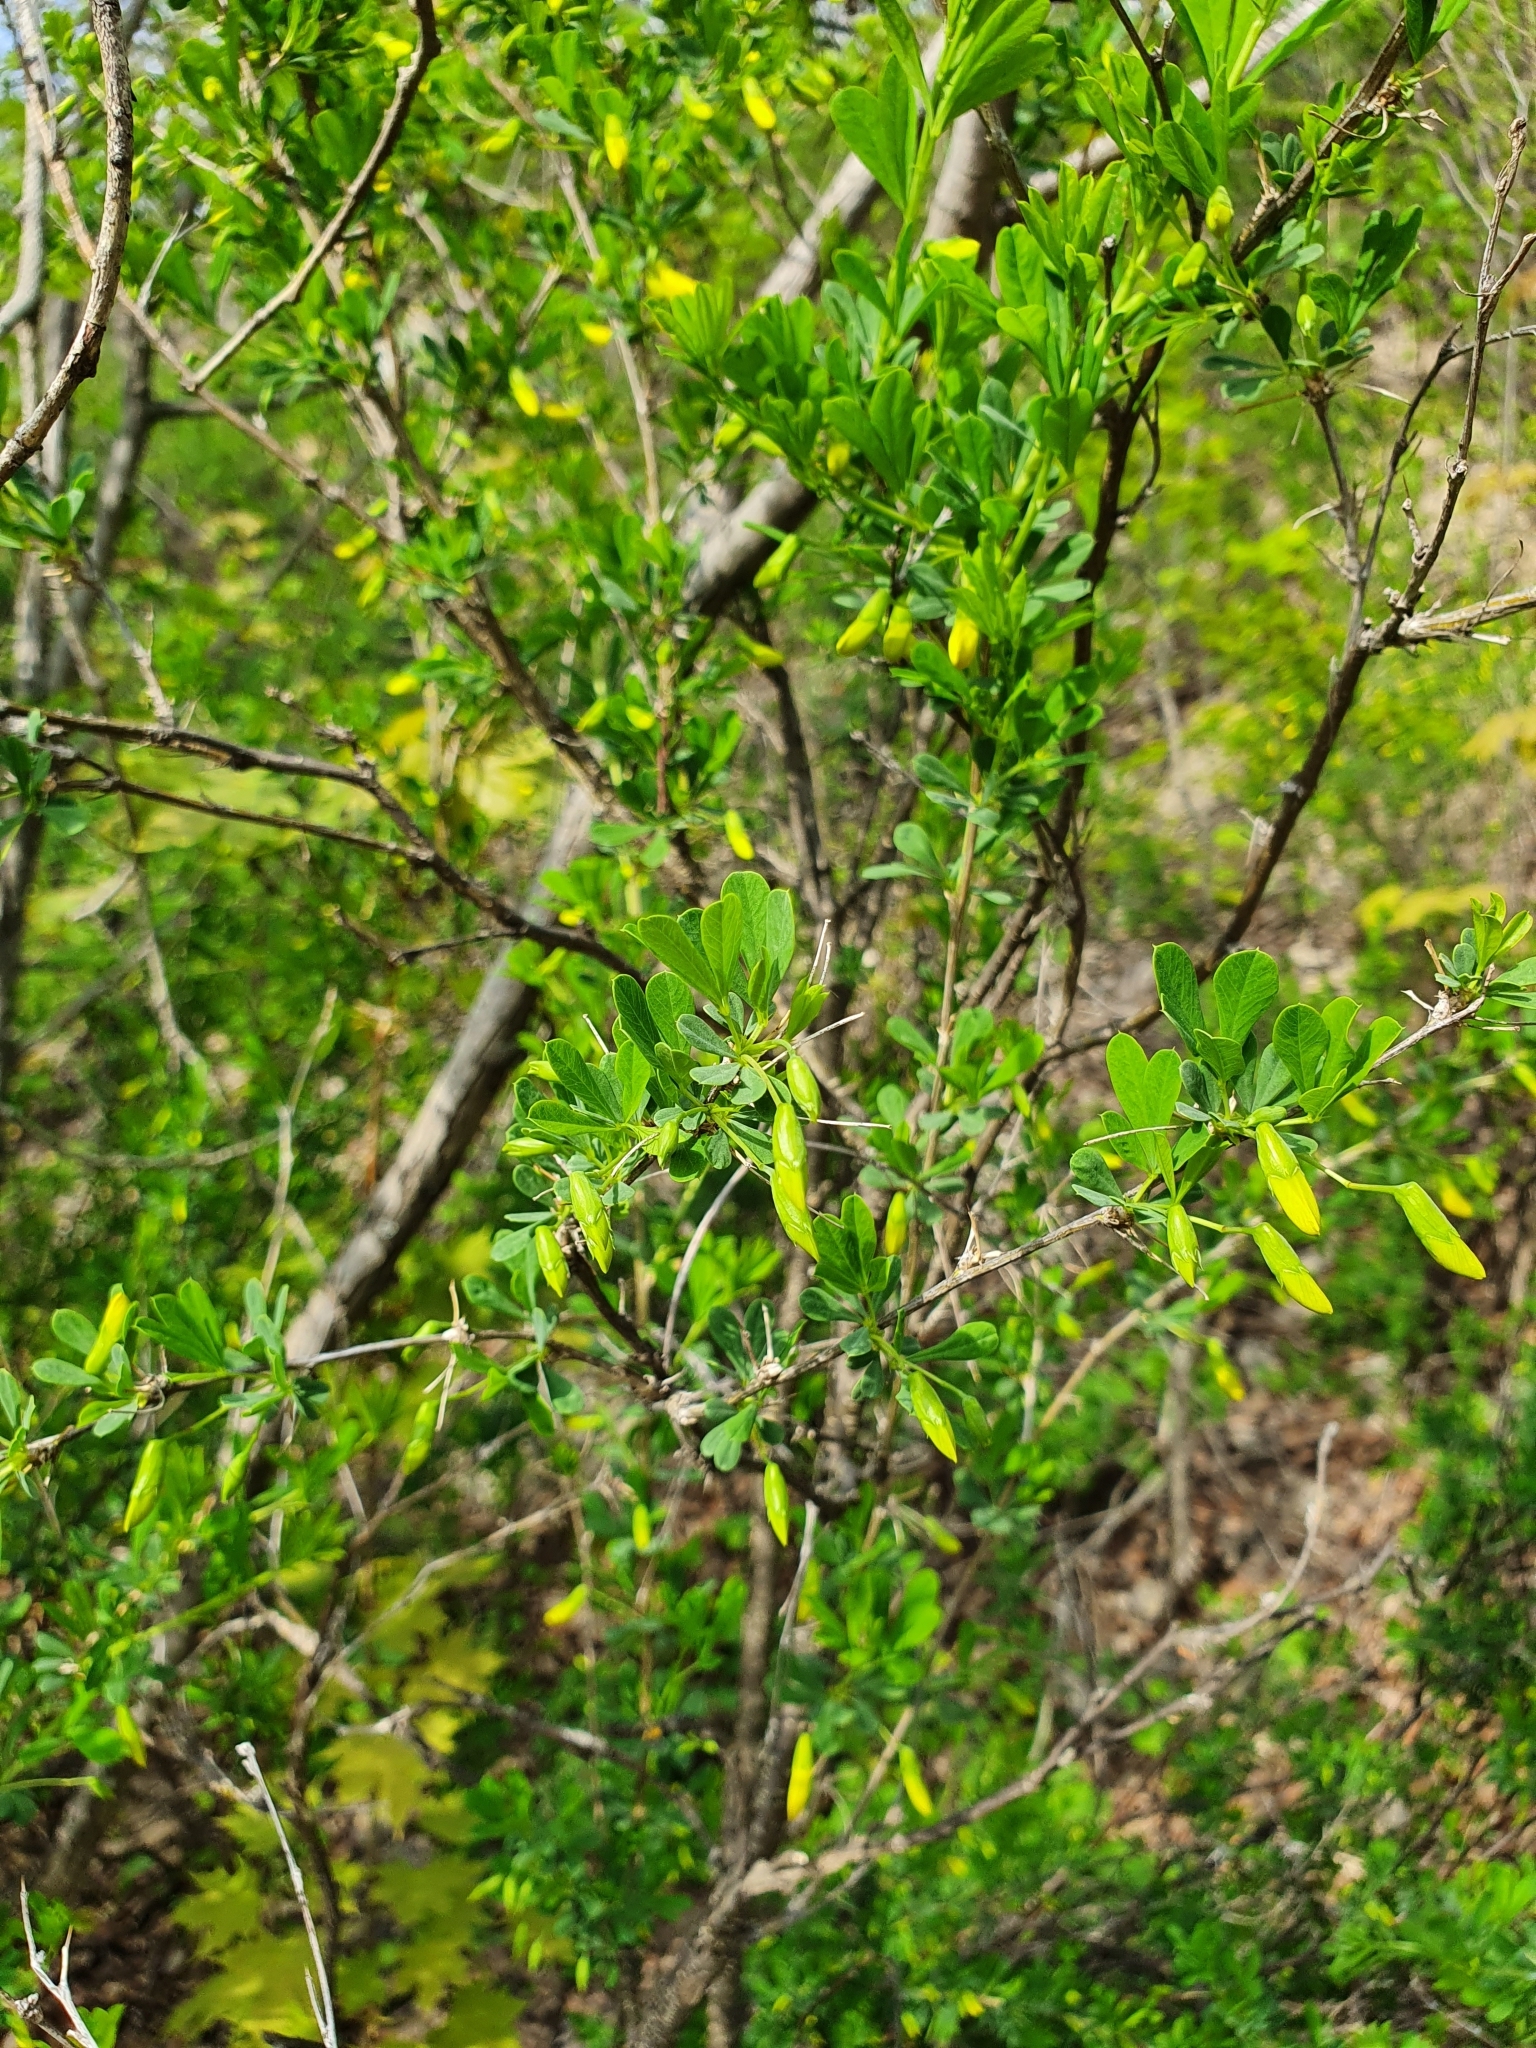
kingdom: Plantae
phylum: Tracheophyta
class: Magnoliopsida
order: Fabales
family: Fabaceae
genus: Caragana
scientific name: Caragana frutex
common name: Russian peashrub
